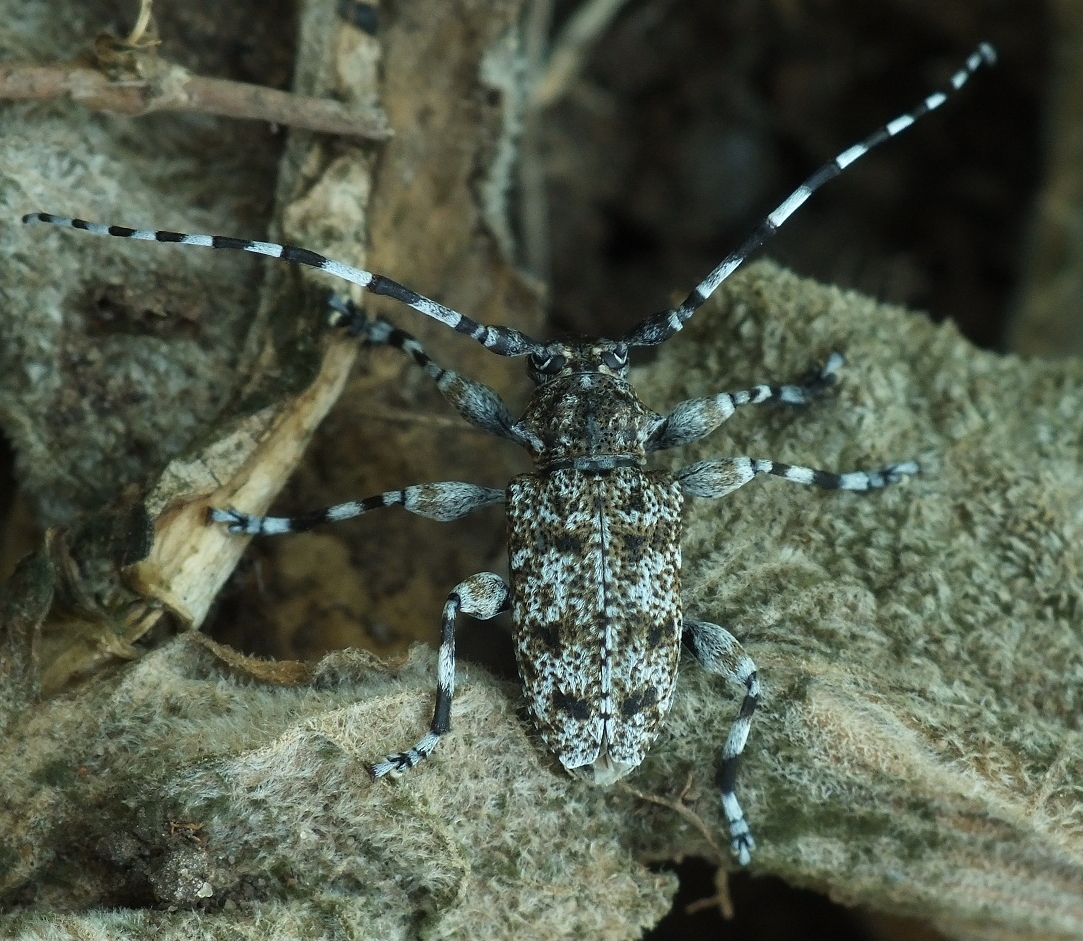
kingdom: Animalia
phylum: Arthropoda
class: Insecta
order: Coleoptera
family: Cerambycidae
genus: Aegomorphus
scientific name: Aegomorphus clavipes
